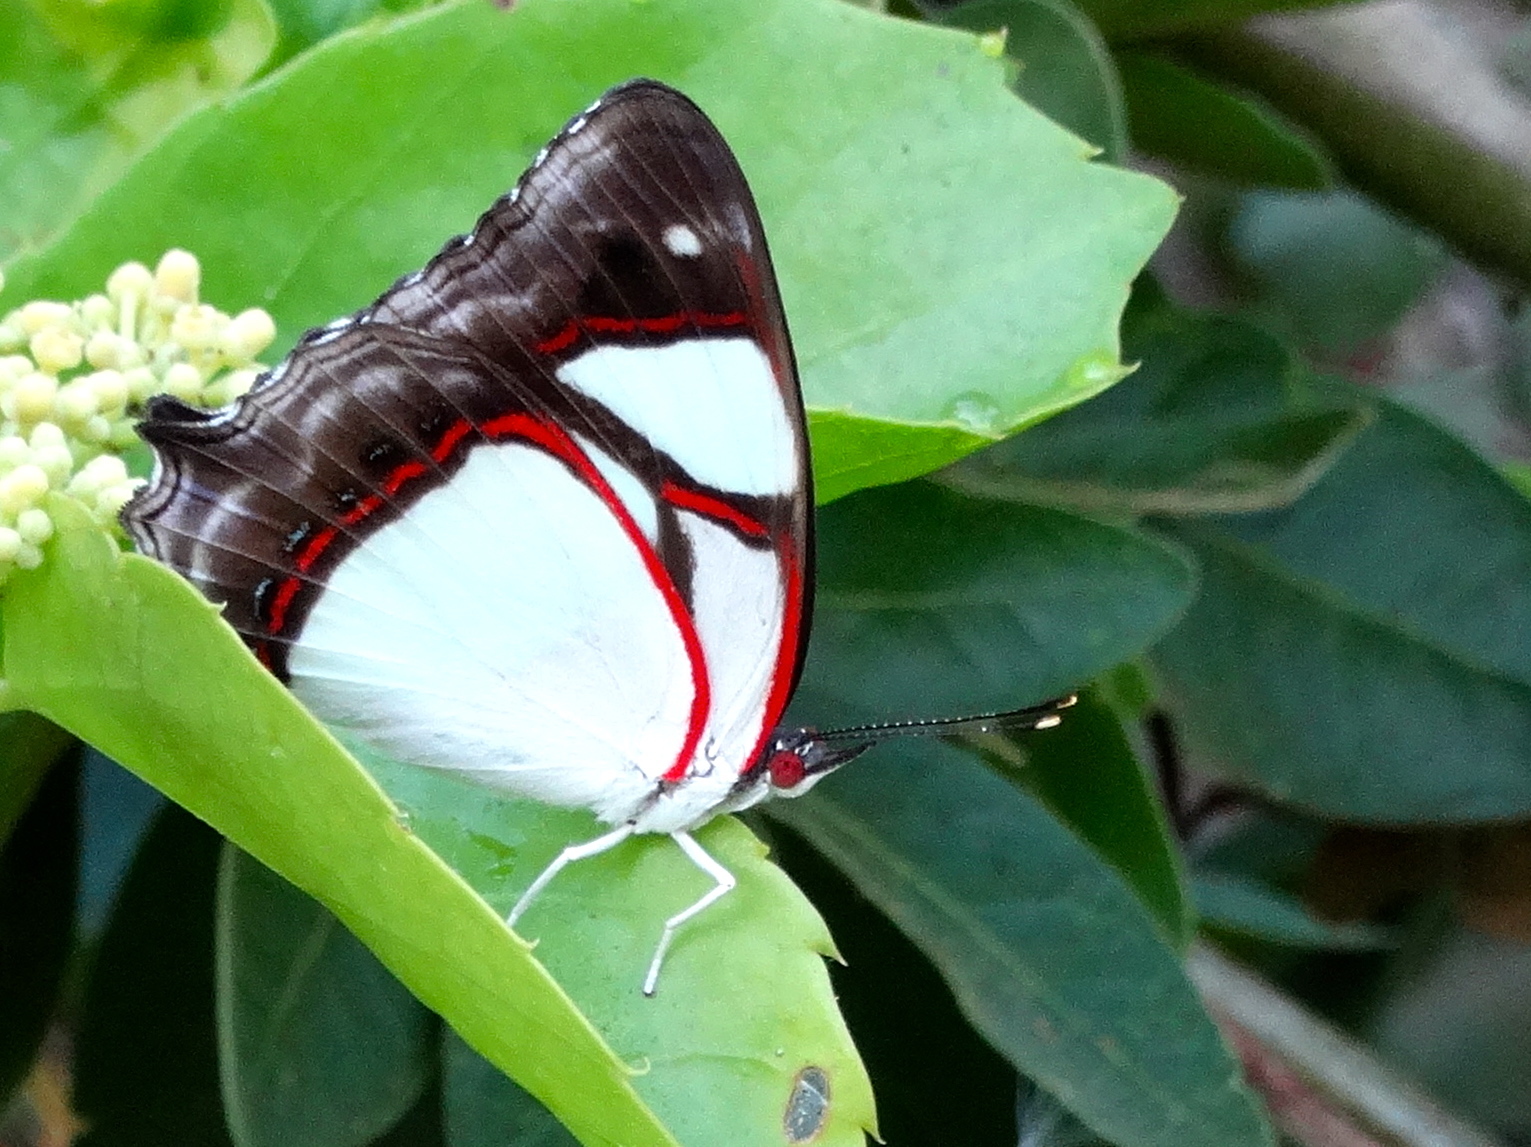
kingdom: Animalia
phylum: Arthropoda
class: Insecta
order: Lepidoptera
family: Nymphalidae
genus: Pyrrhogyra
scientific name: Pyrrhogyra neaerea
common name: Leading red-ring
